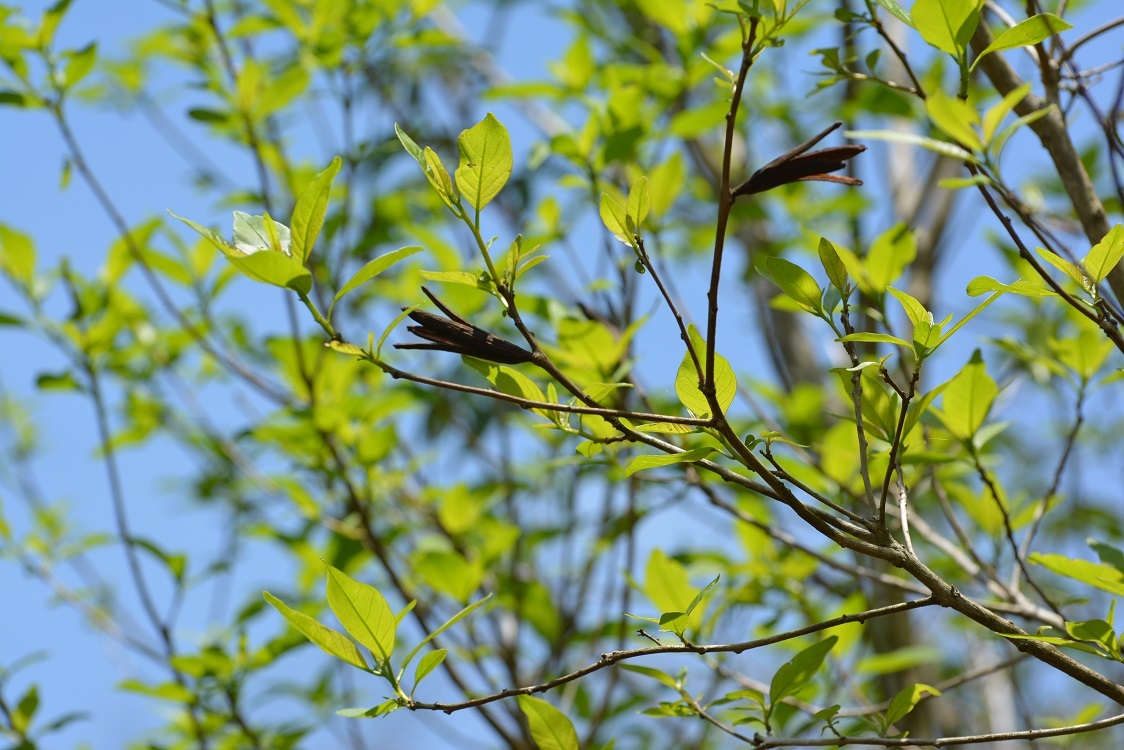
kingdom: Plantae
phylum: Tracheophyta
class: Magnoliopsida
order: Myrtales
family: Onagraceae
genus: Hauya
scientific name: Hauya elegans
